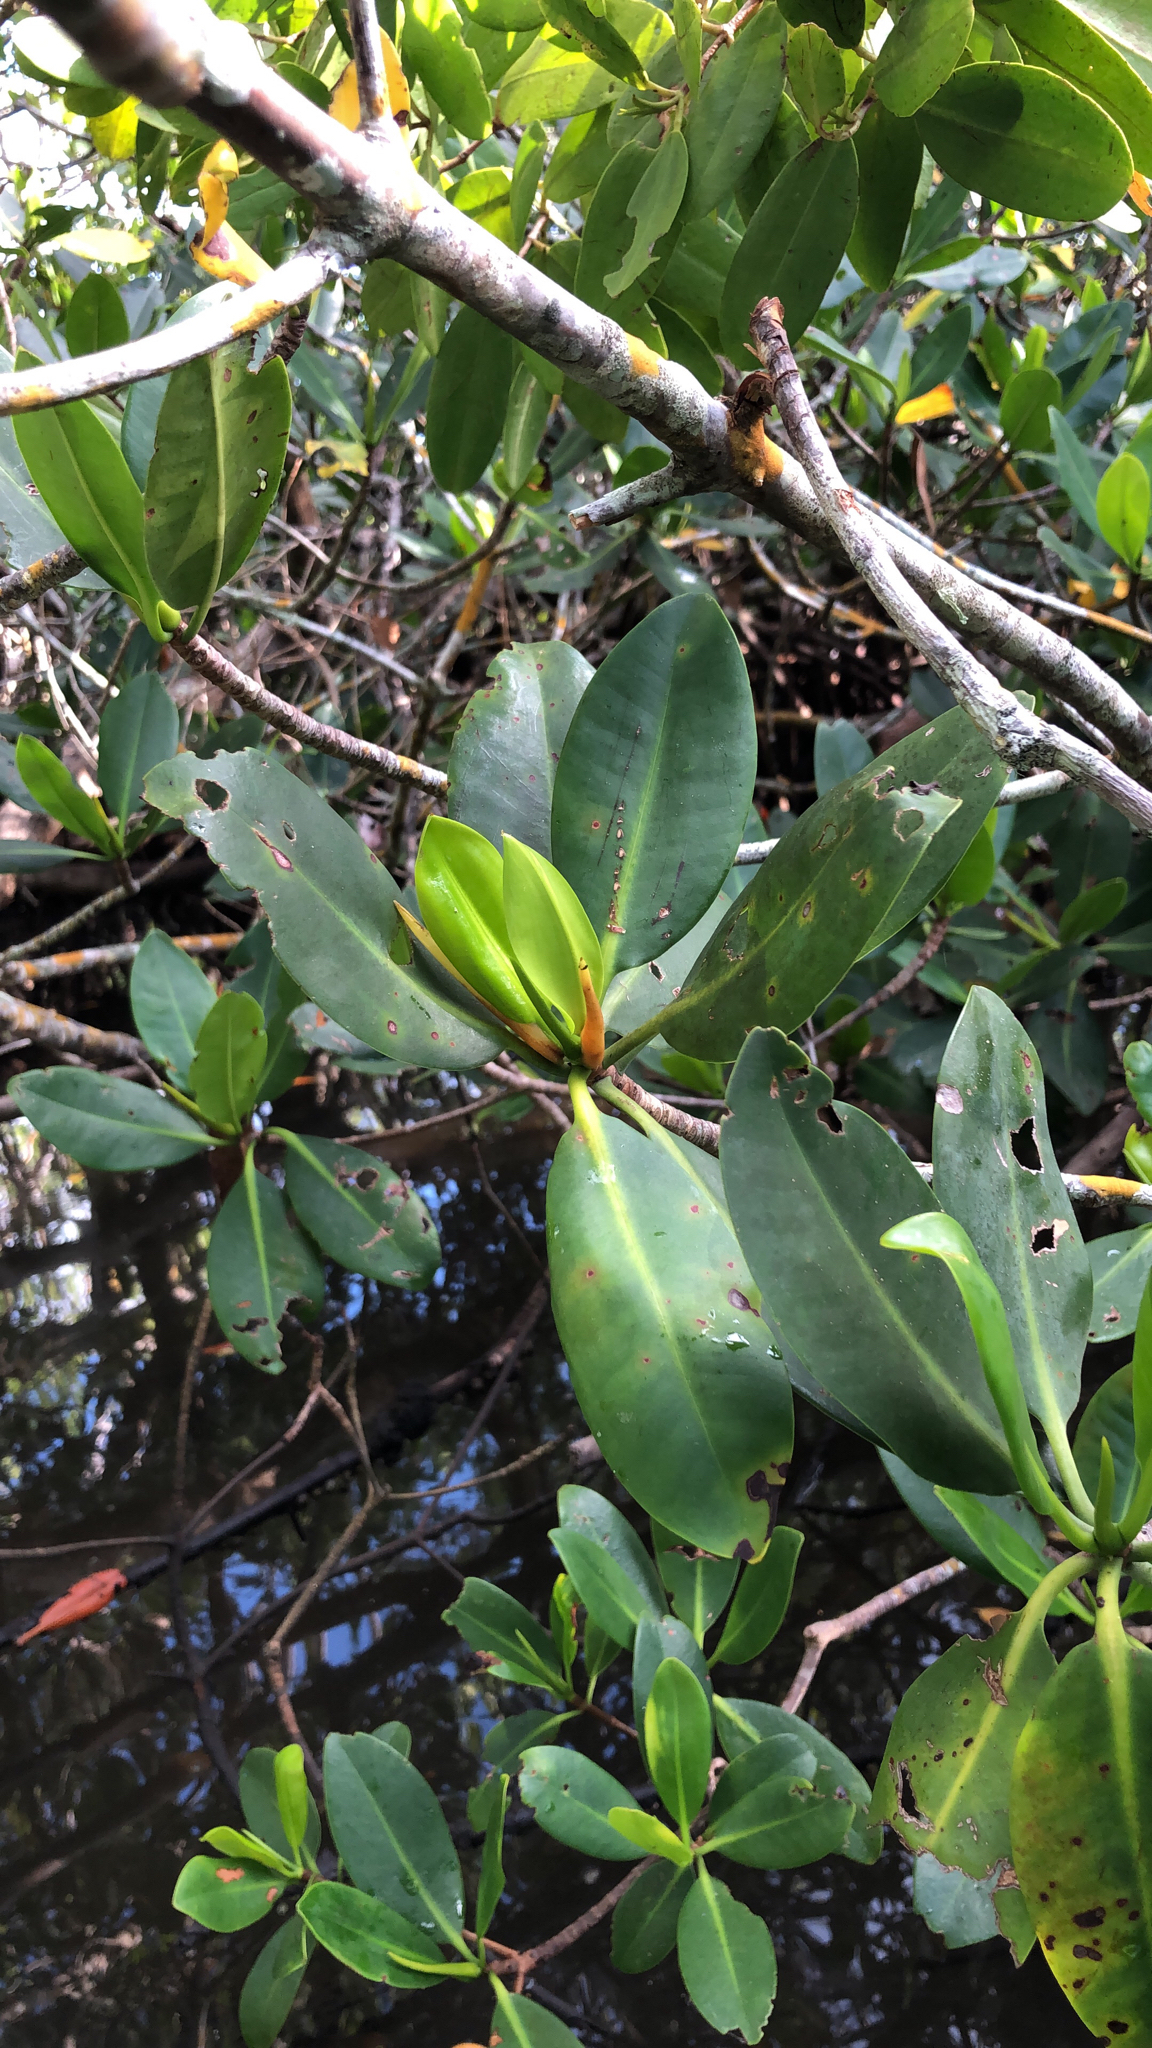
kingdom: Plantae
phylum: Tracheophyta
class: Magnoliopsida
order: Malpighiales
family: Rhizophoraceae
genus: Rhizophora
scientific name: Rhizophora mangle
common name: Red mangrove
